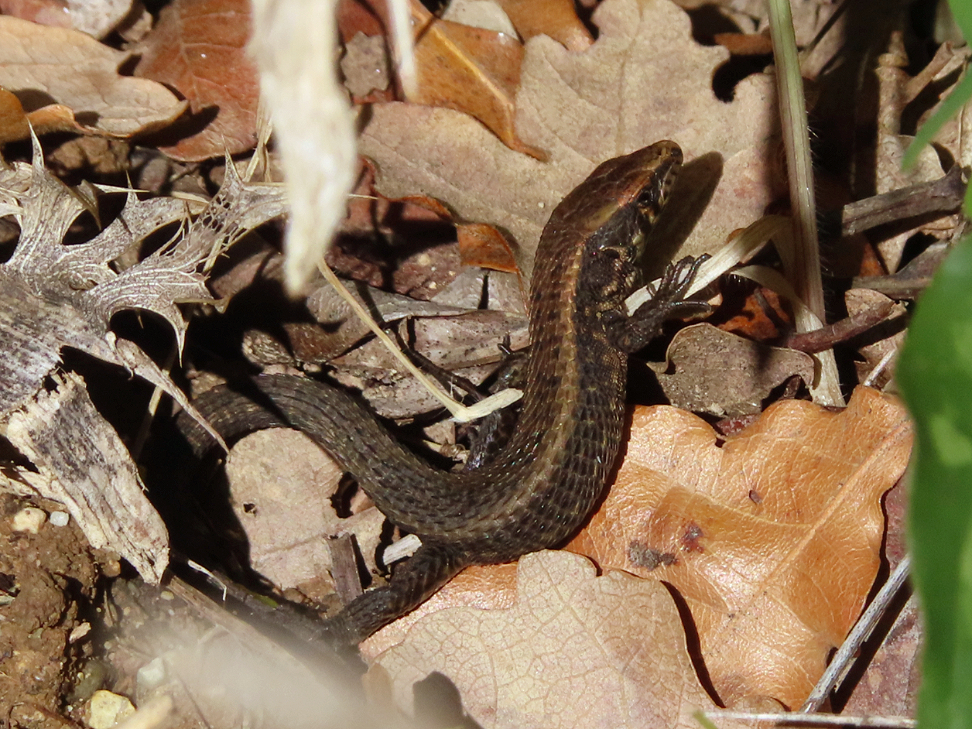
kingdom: Animalia
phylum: Chordata
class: Squamata
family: Lacertidae
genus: Algyroides
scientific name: Algyroides moreoticus
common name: Greek algyroides
